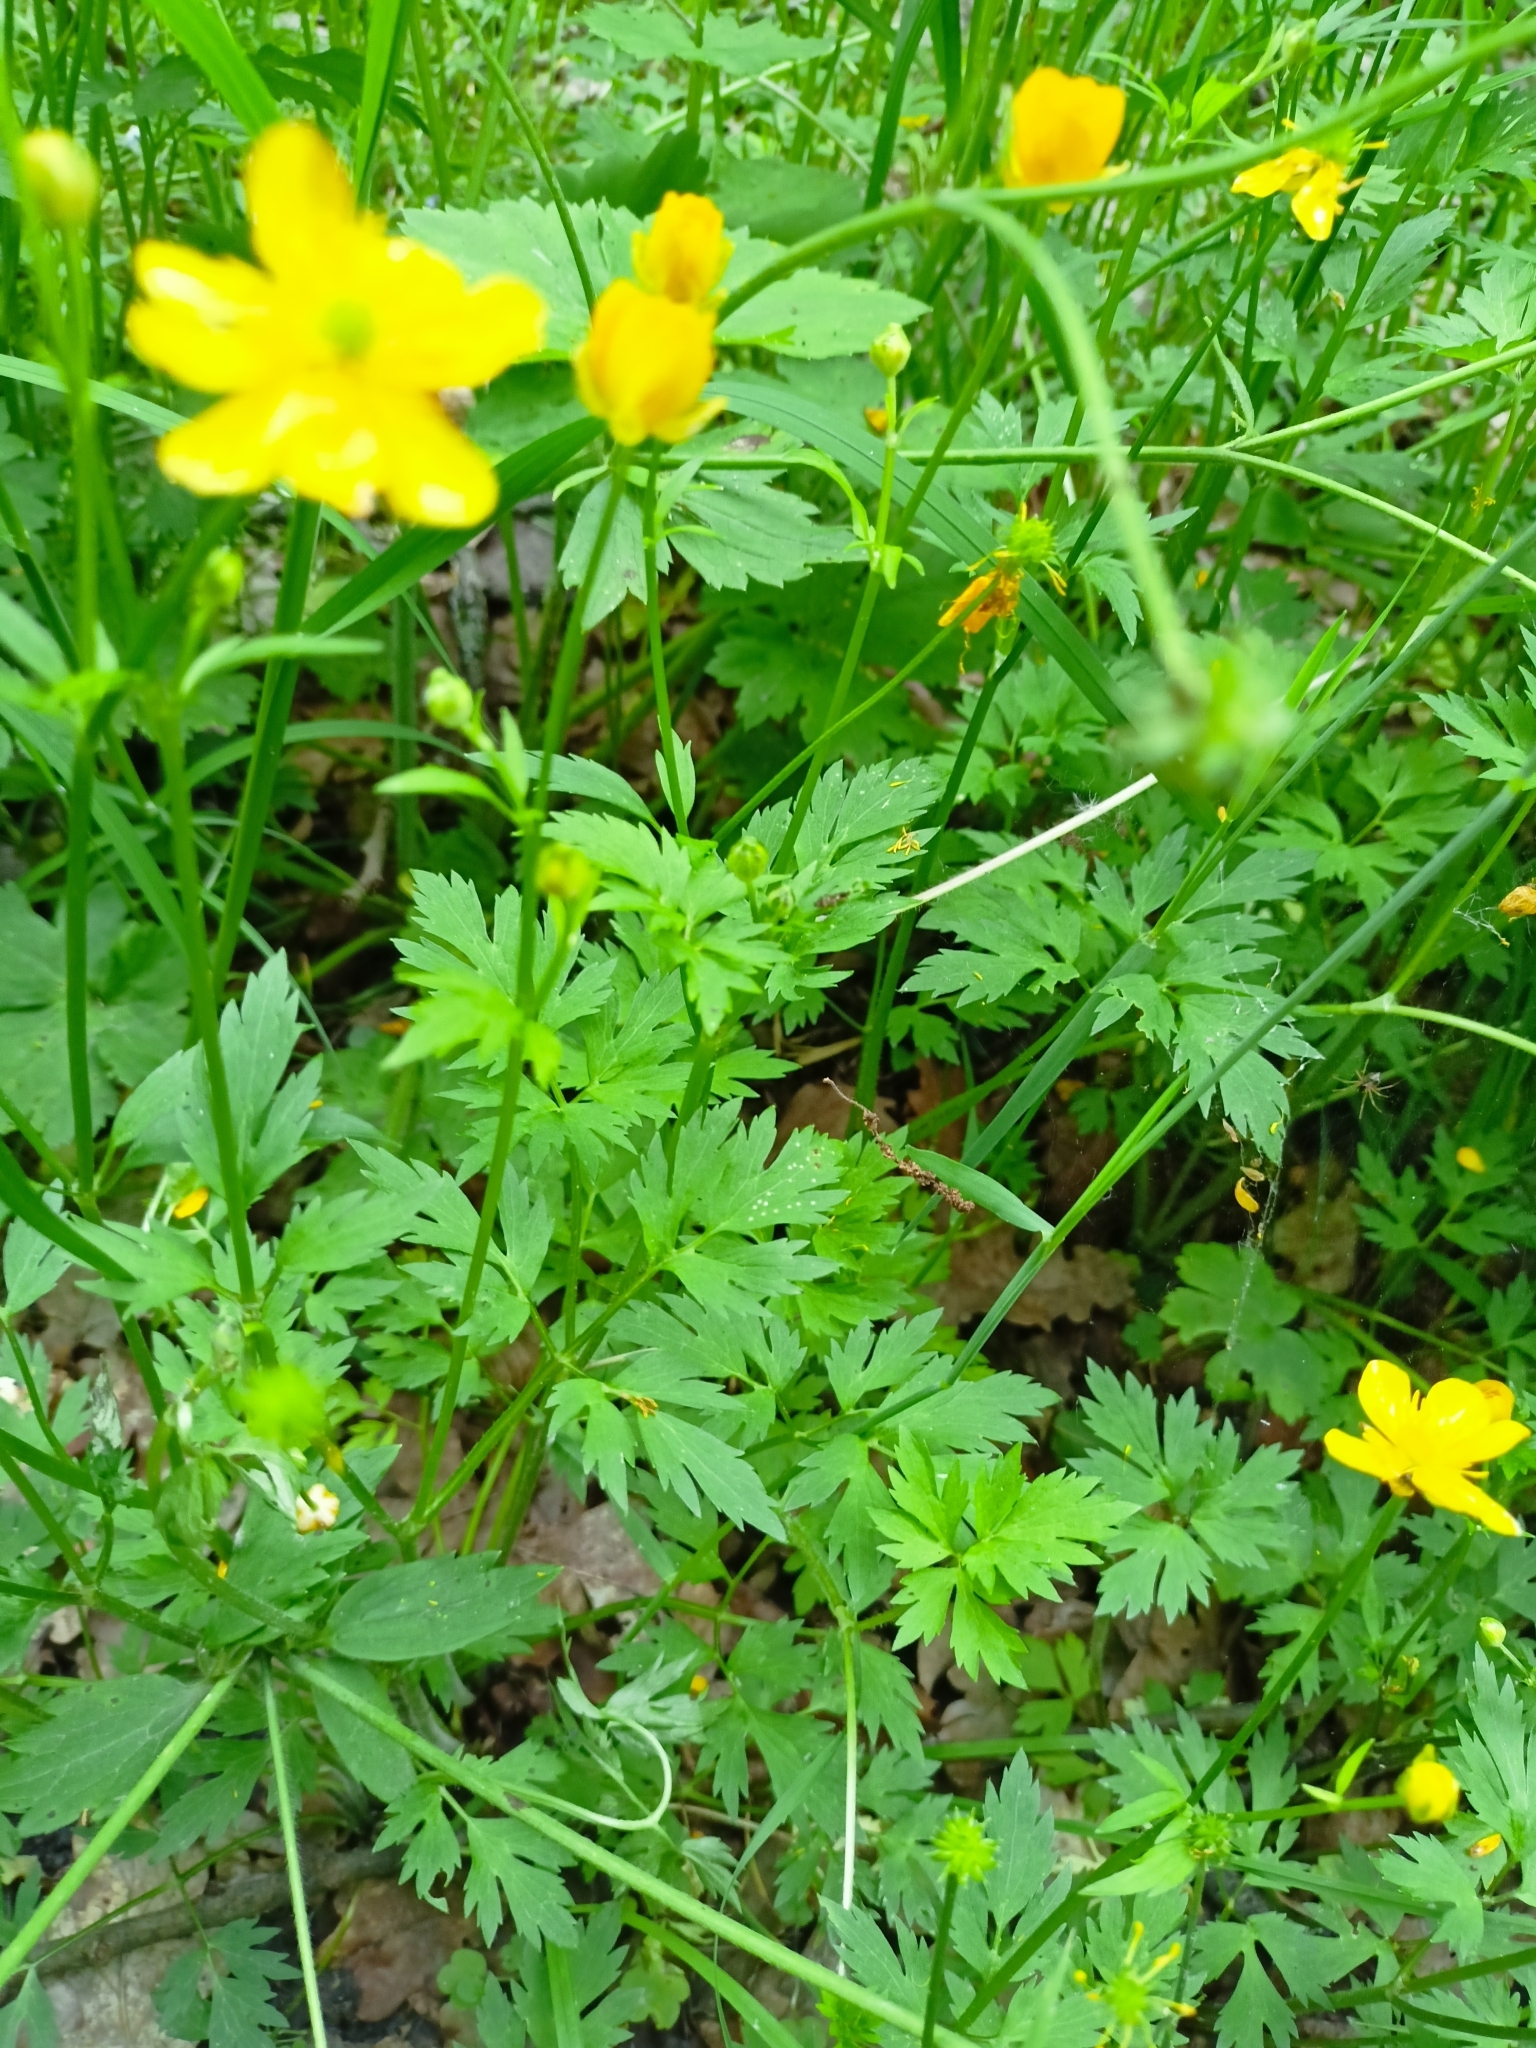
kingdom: Plantae
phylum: Tracheophyta
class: Magnoliopsida
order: Ranunculales
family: Ranunculaceae
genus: Ranunculus
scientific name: Ranunculus repens
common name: Creeping buttercup
